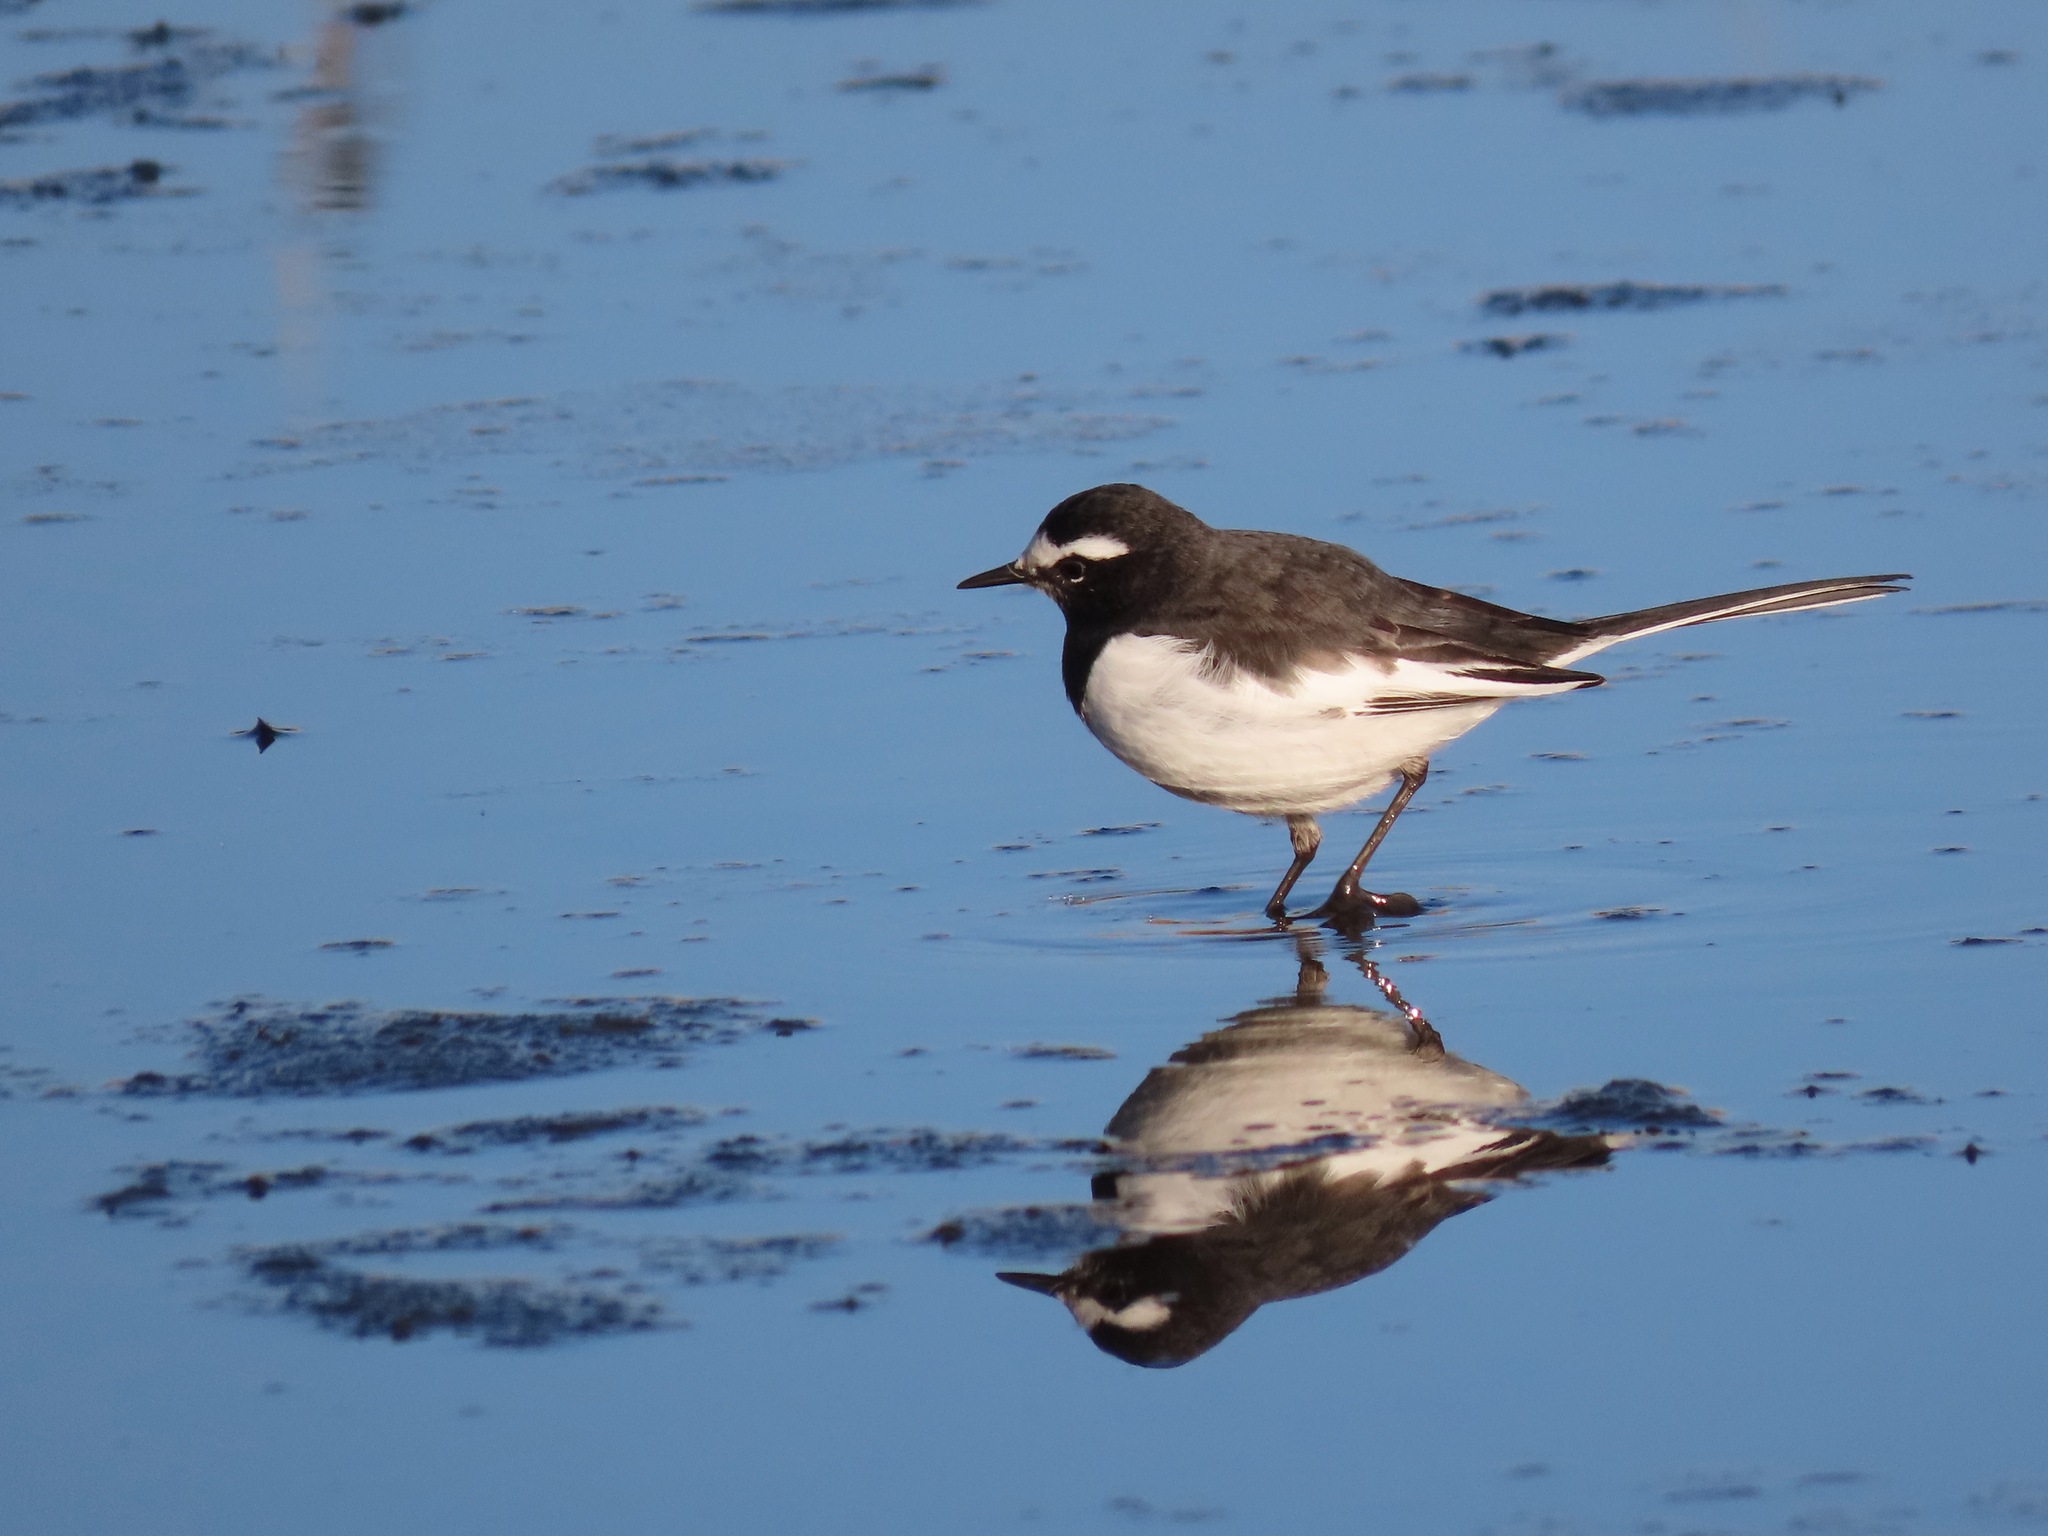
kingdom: Animalia
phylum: Chordata
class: Aves
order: Passeriformes
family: Motacillidae
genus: Motacilla
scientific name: Motacilla grandis
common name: Japanese wagtail
